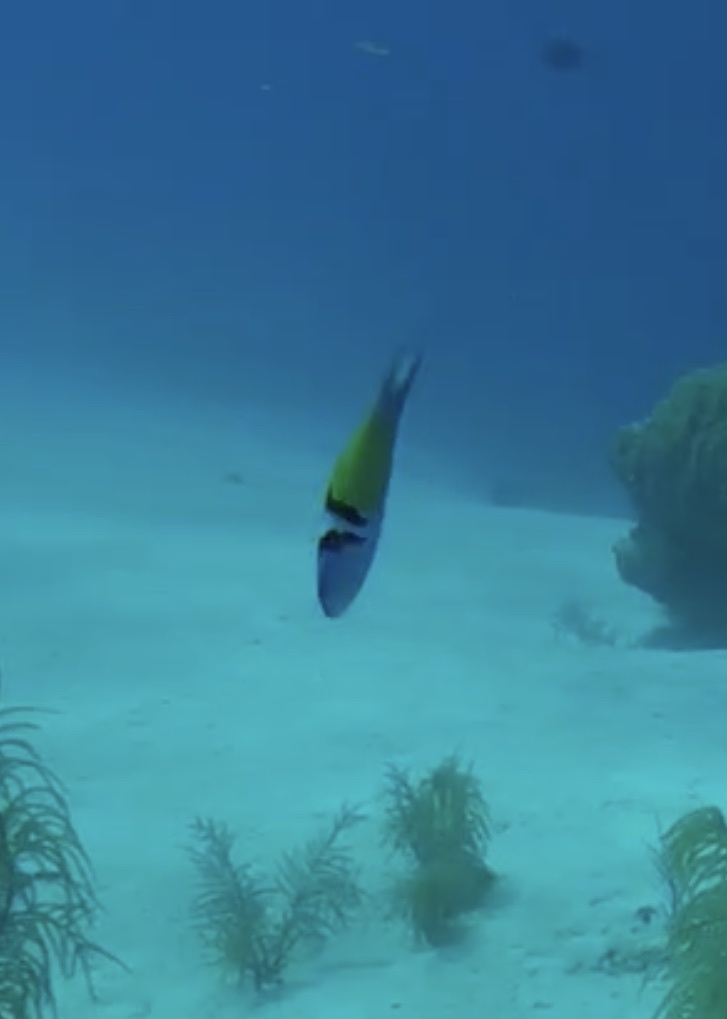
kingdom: Animalia
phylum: Chordata
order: Perciformes
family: Labridae
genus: Thalassoma
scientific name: Thalassoma bifasciatum
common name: Bluehead wrasse
